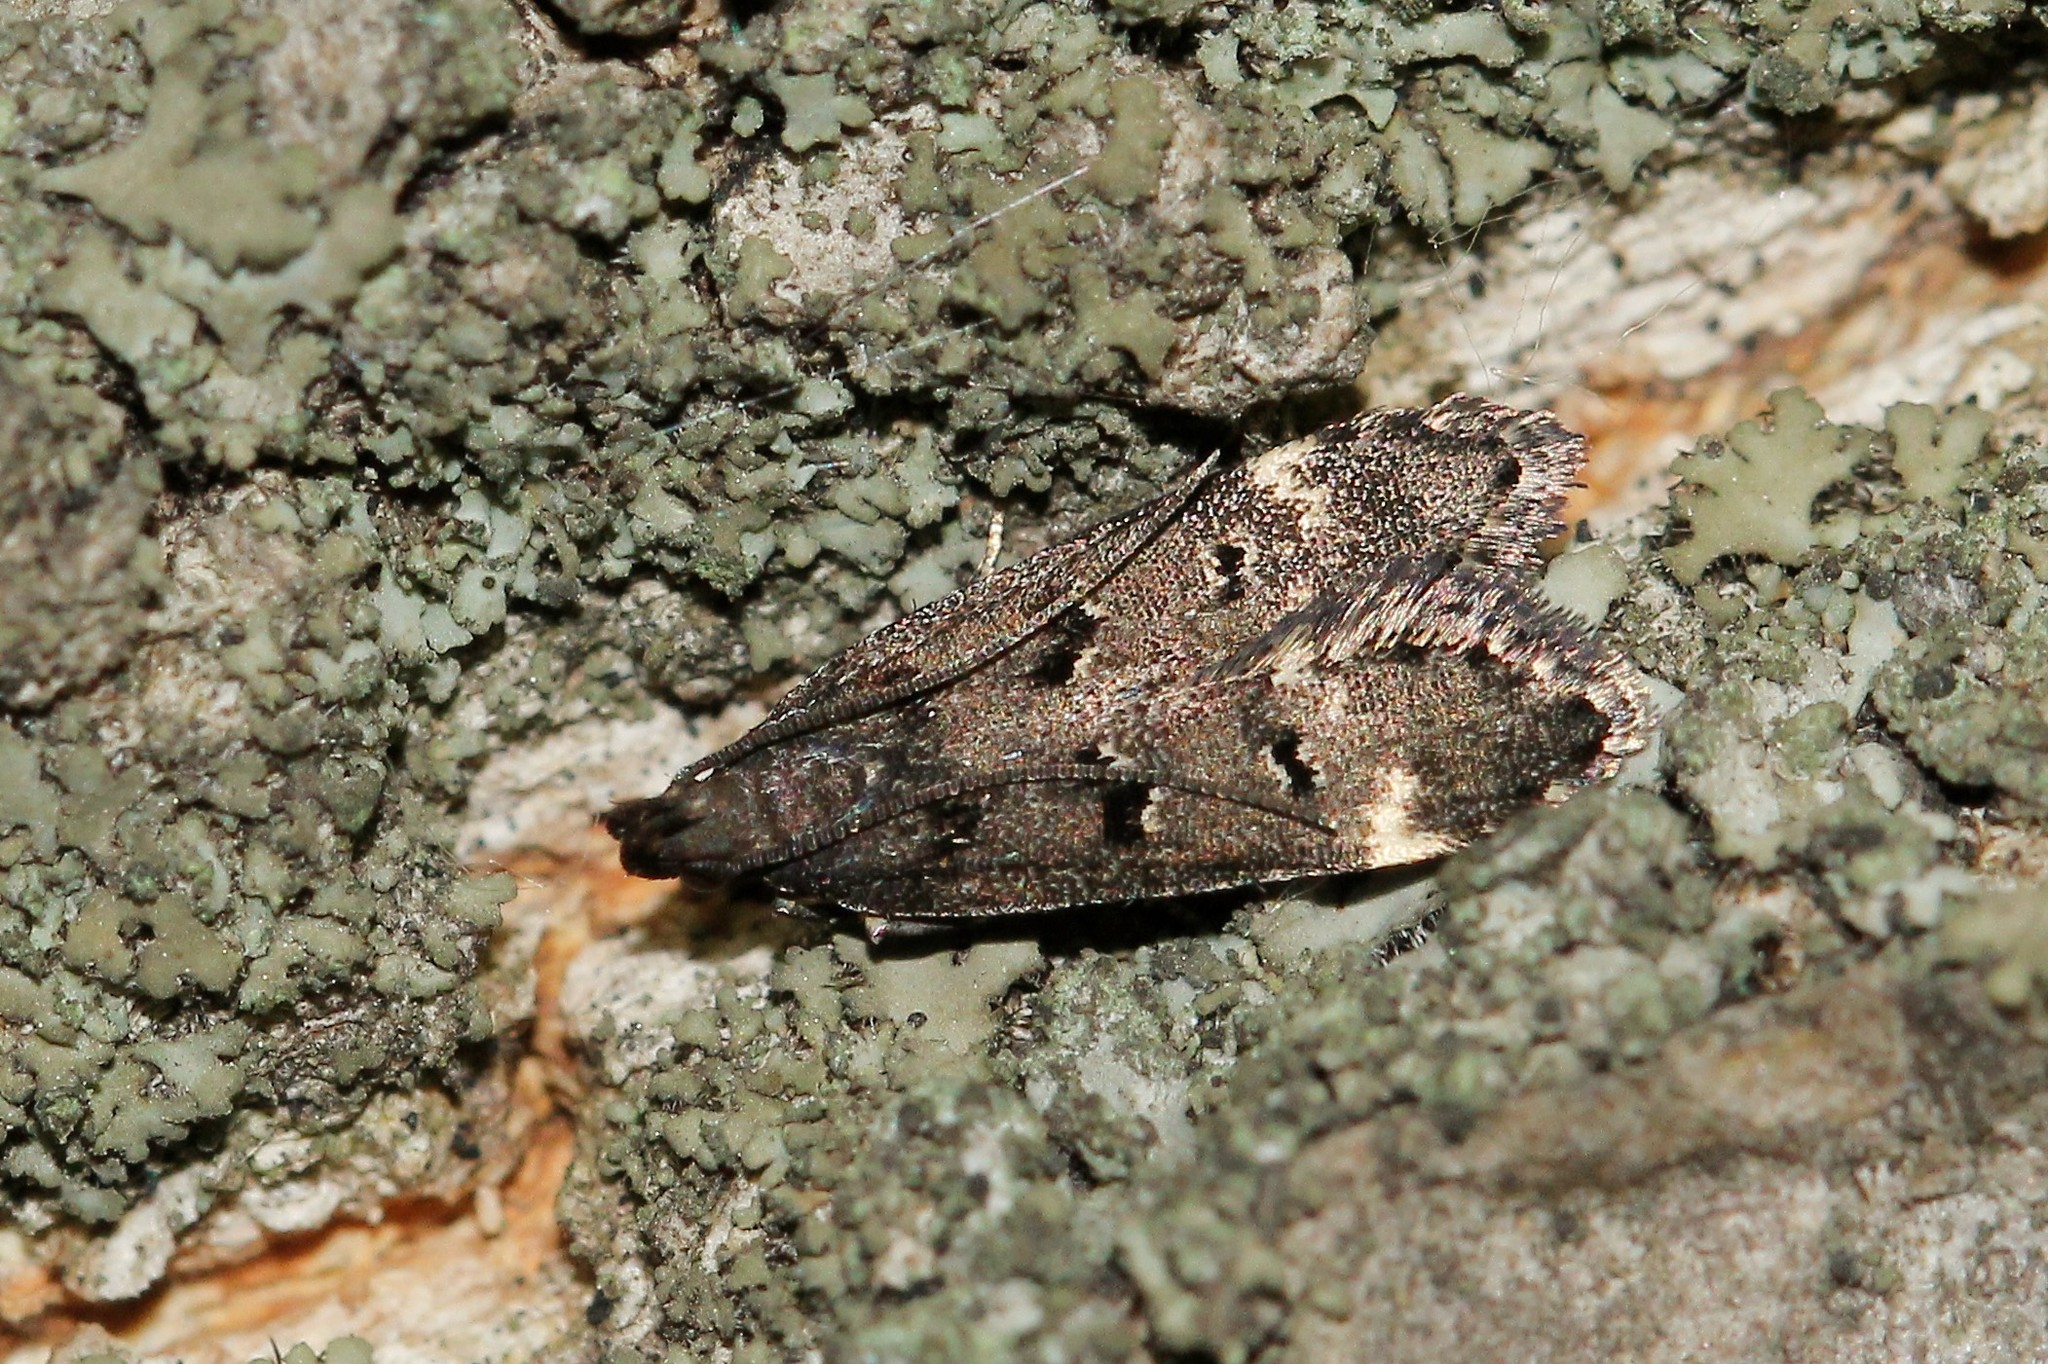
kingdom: Animalia
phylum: Arthropoda
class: Insecta
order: Lepidoptera
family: Gelechiidae
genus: Acanthophila
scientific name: Acanthophila alacella
